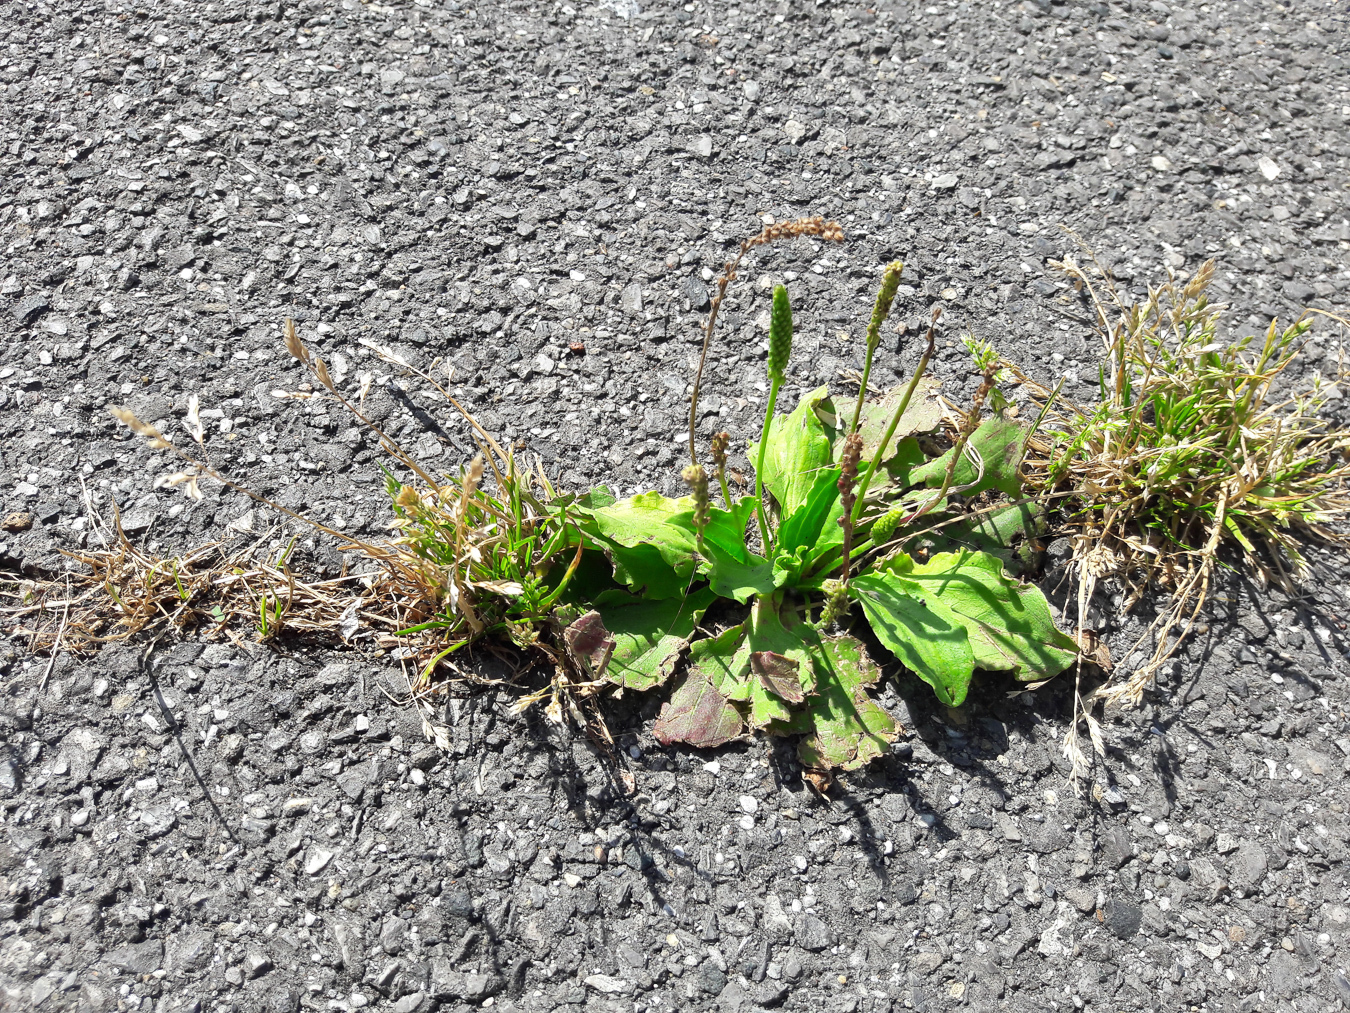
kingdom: Plantae
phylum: Tracheophyta
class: Magnoliopsida
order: Lamiales
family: Plantaginaceae
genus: Plantago
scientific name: Plantago major
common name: Common plantain
